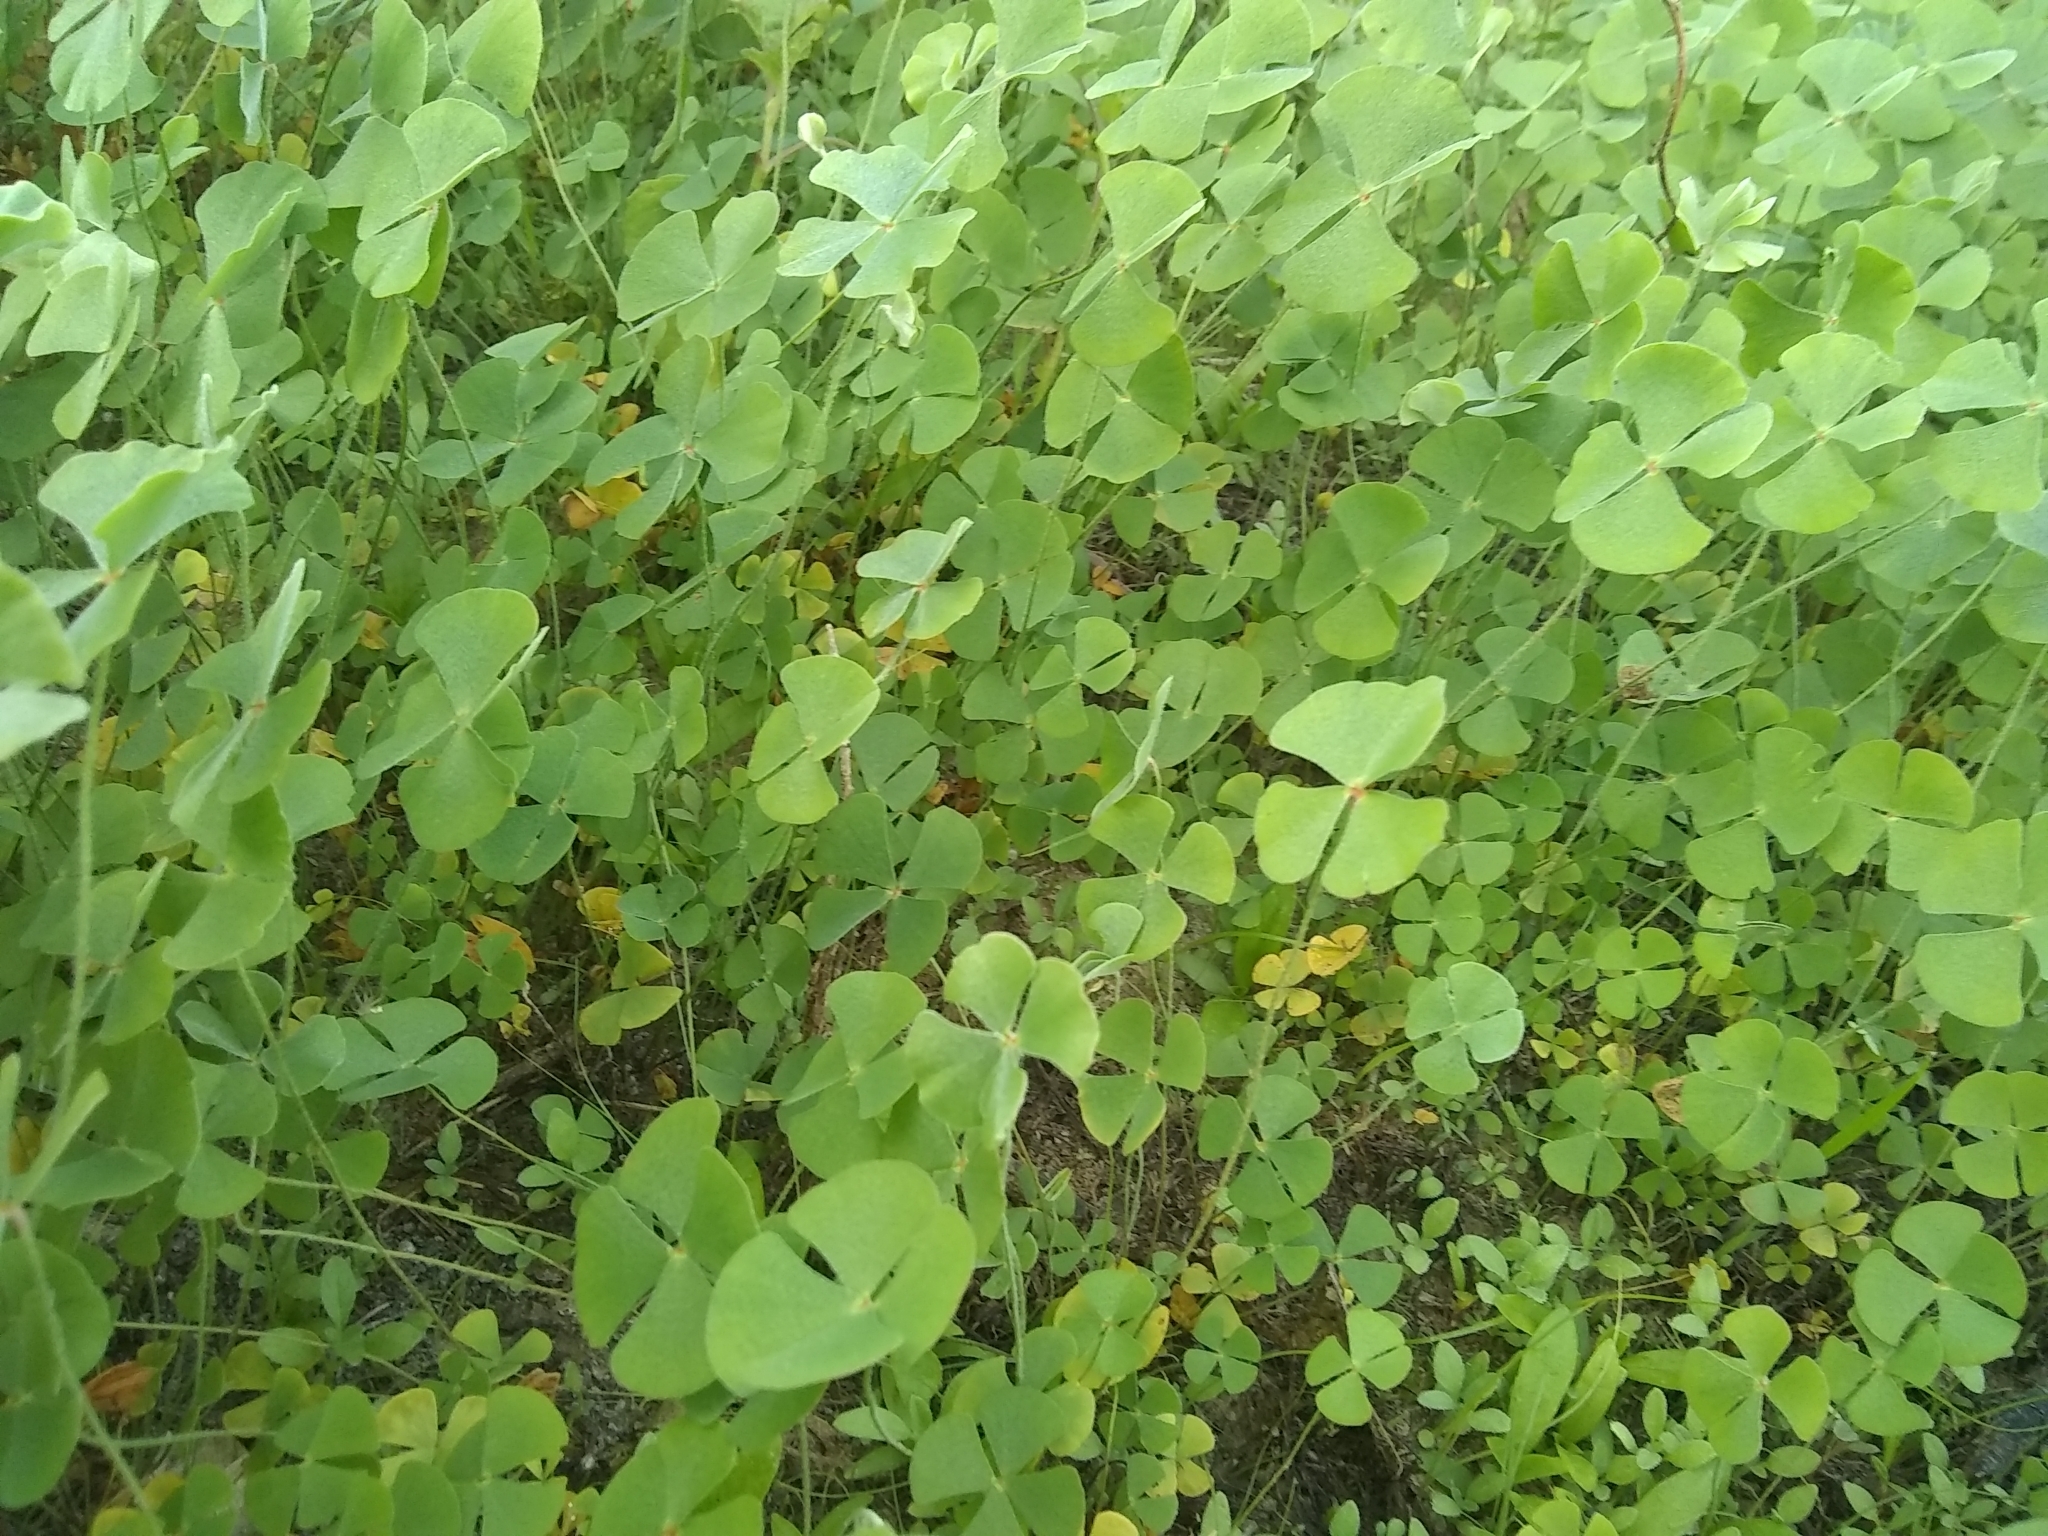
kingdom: Plantae
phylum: Tracheophyta
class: Polypodiopsida
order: Salviniales
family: Marsileaceae
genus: Marsilea
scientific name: Marsilea vestita
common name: Hooked-pepperwort
